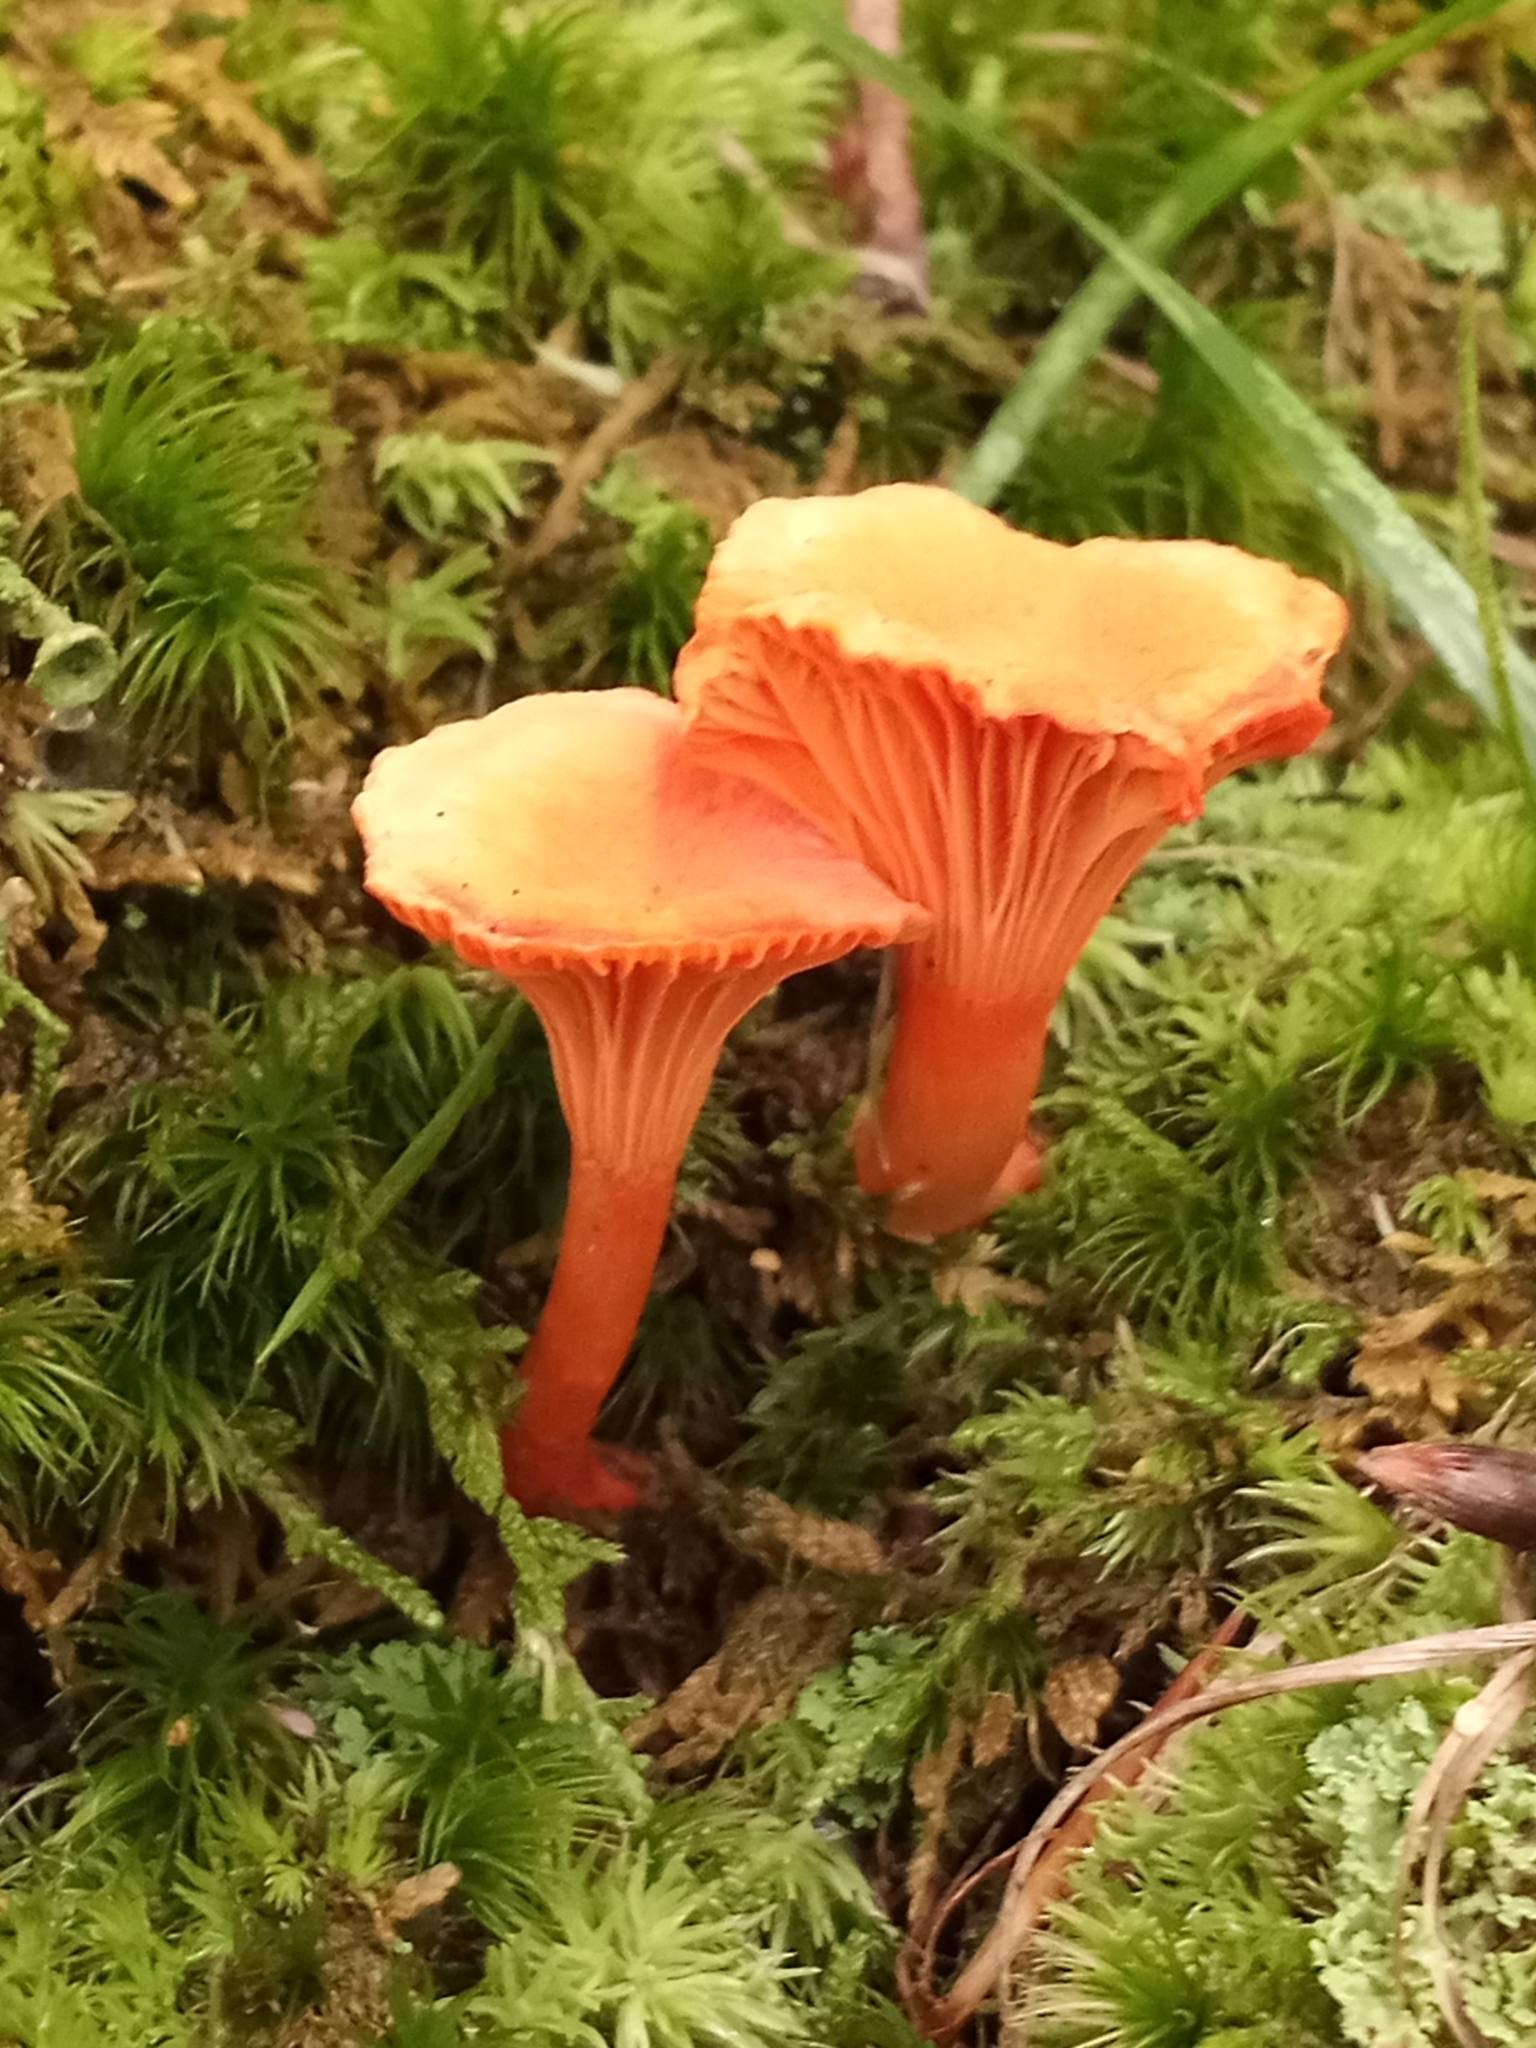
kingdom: Fungi
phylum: Basidiomycota
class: Agaricomycetes
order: Cantharellales
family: Hydnaceae
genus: Cantharellus
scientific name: Cantharellus cinnabarinus
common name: Cinnabar chanterelle
